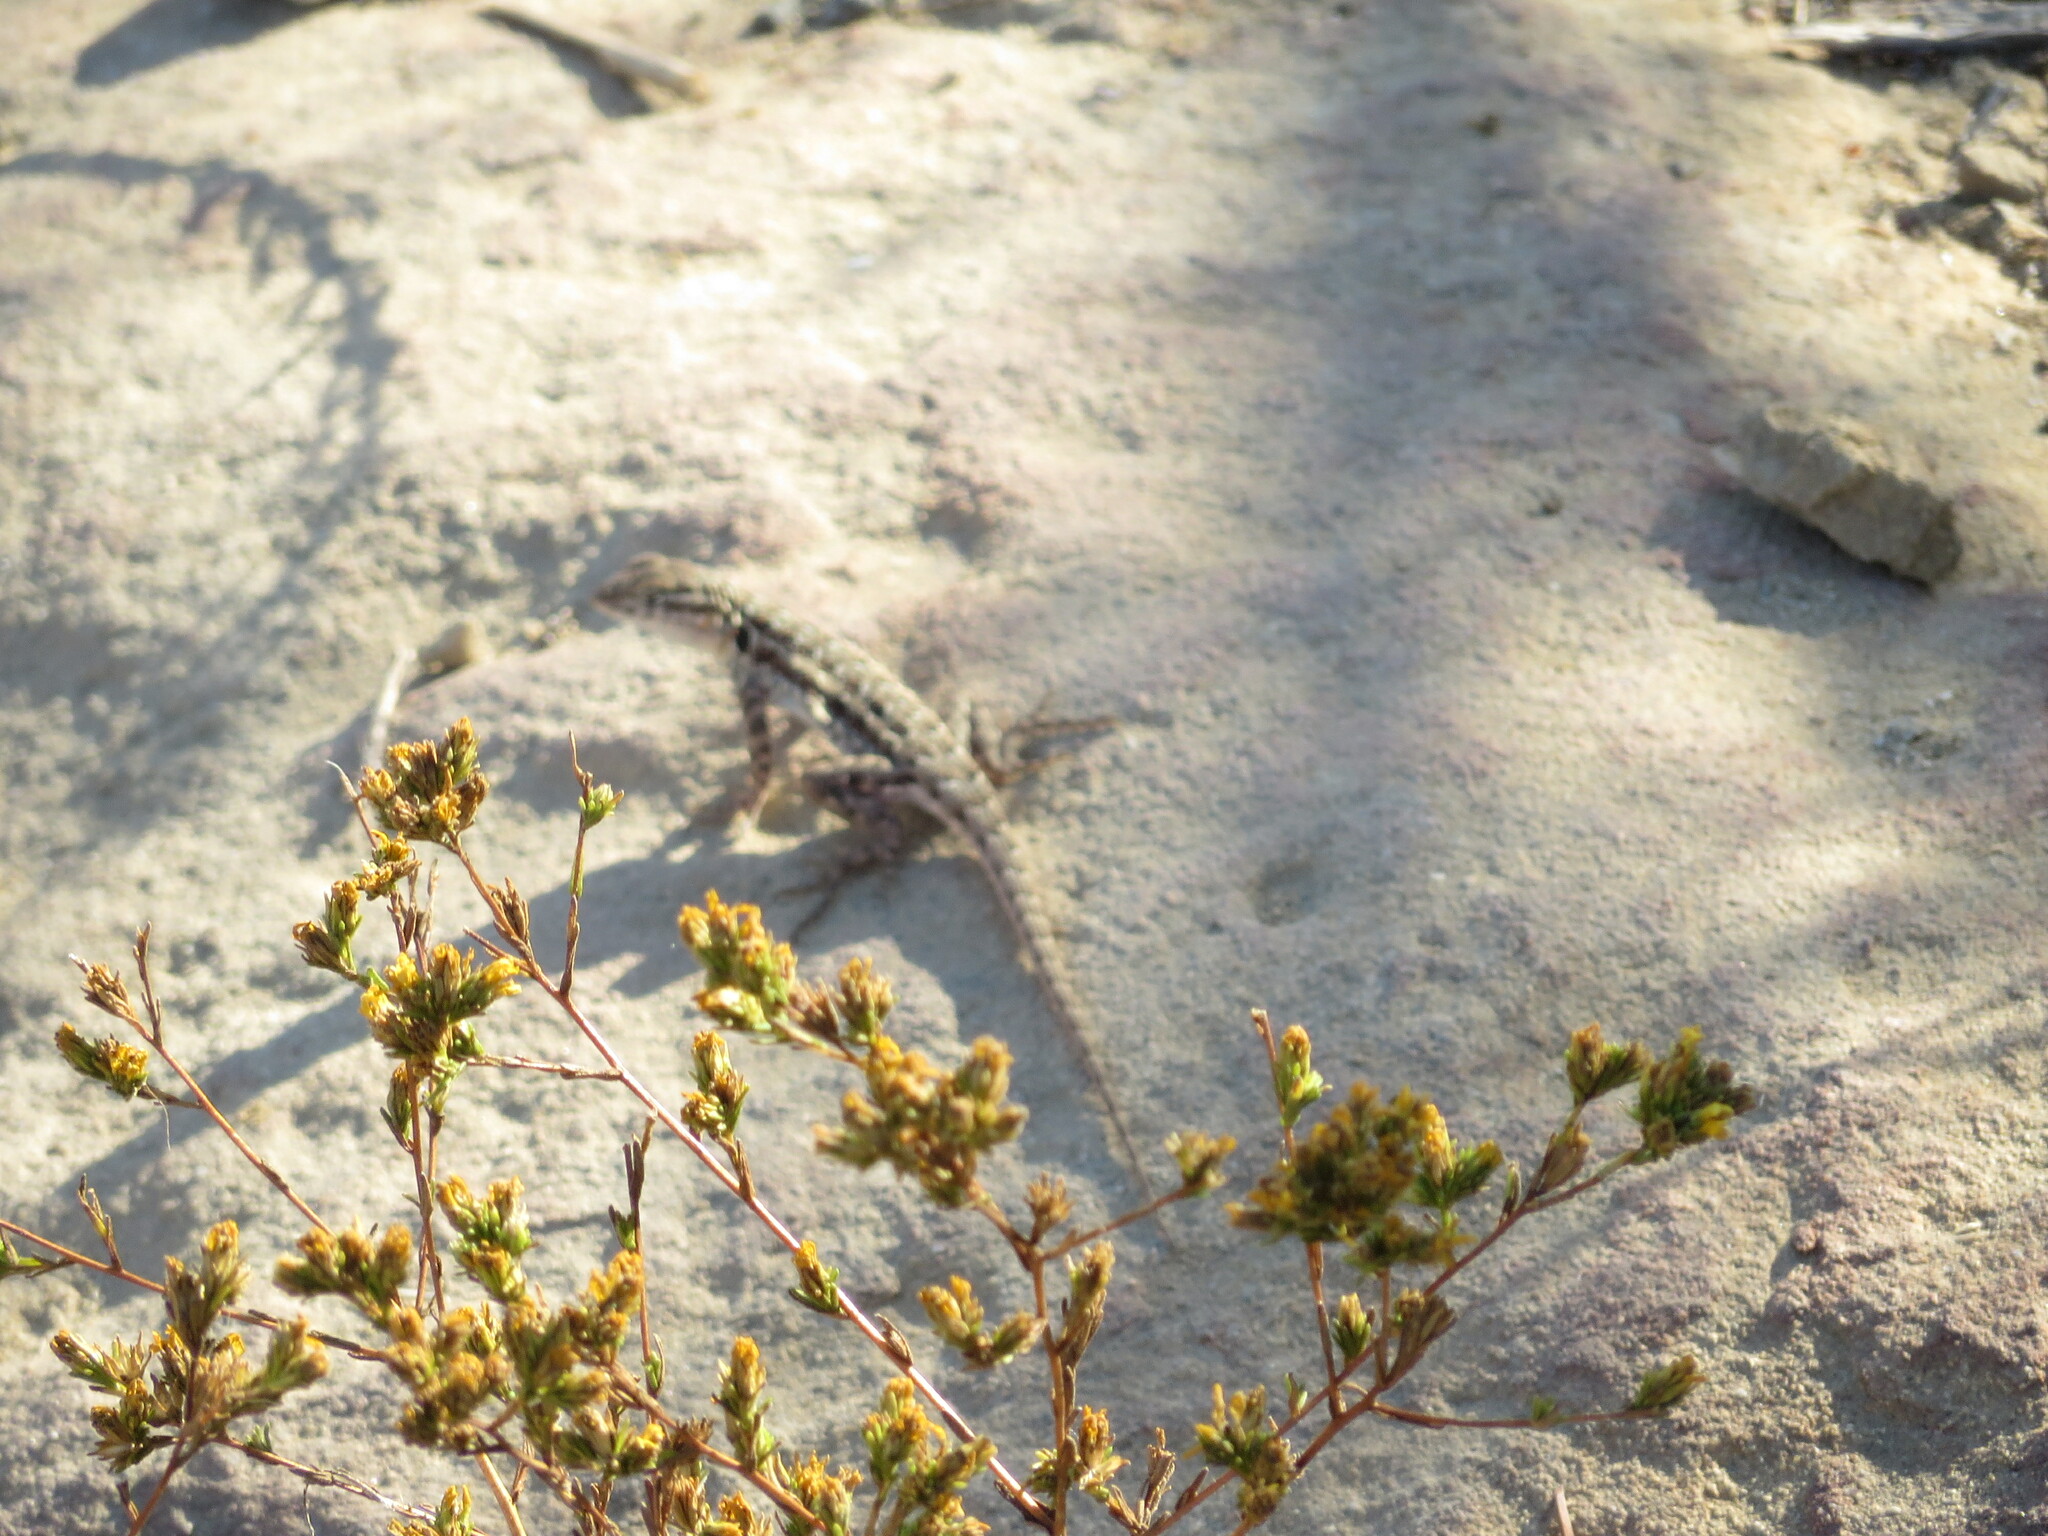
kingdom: Animalia
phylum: Chordata
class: Squamata
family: Phrynosomatidae
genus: Uta
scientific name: Uta stansburiana
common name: Side-blotched lizard
